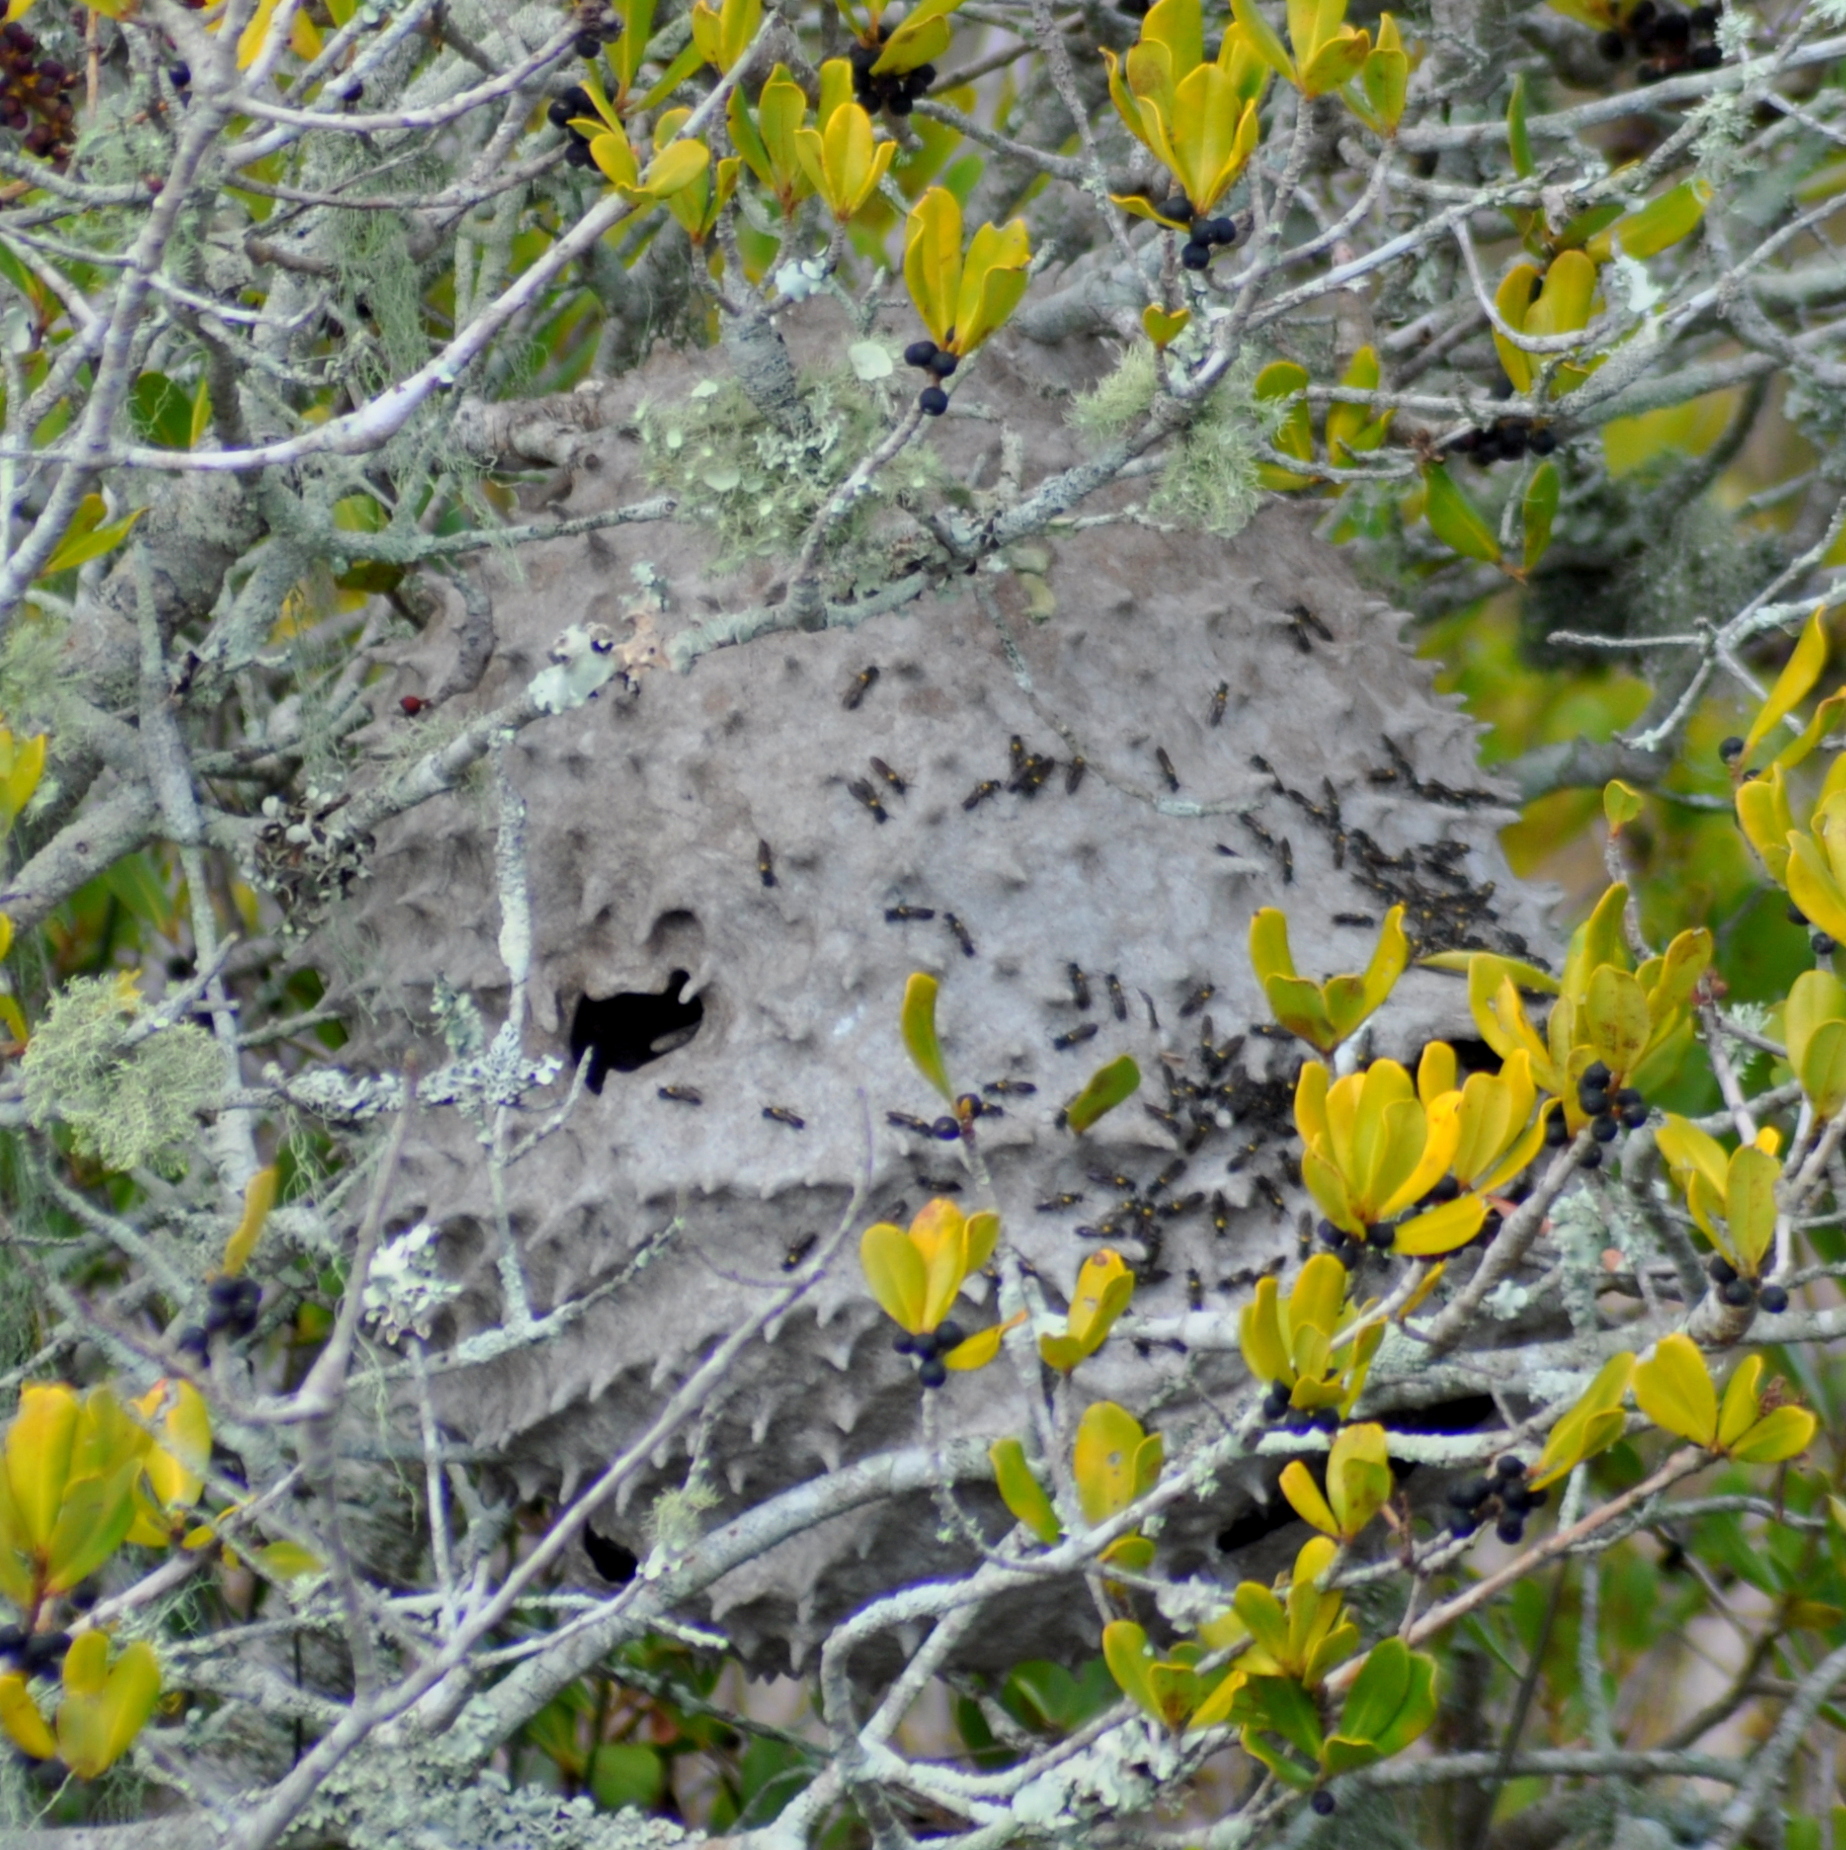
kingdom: Animalia
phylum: Arthropoda
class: Insecta
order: Hymenoptera
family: Eumenidae
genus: Polybia
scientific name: Polybia scutellaris
